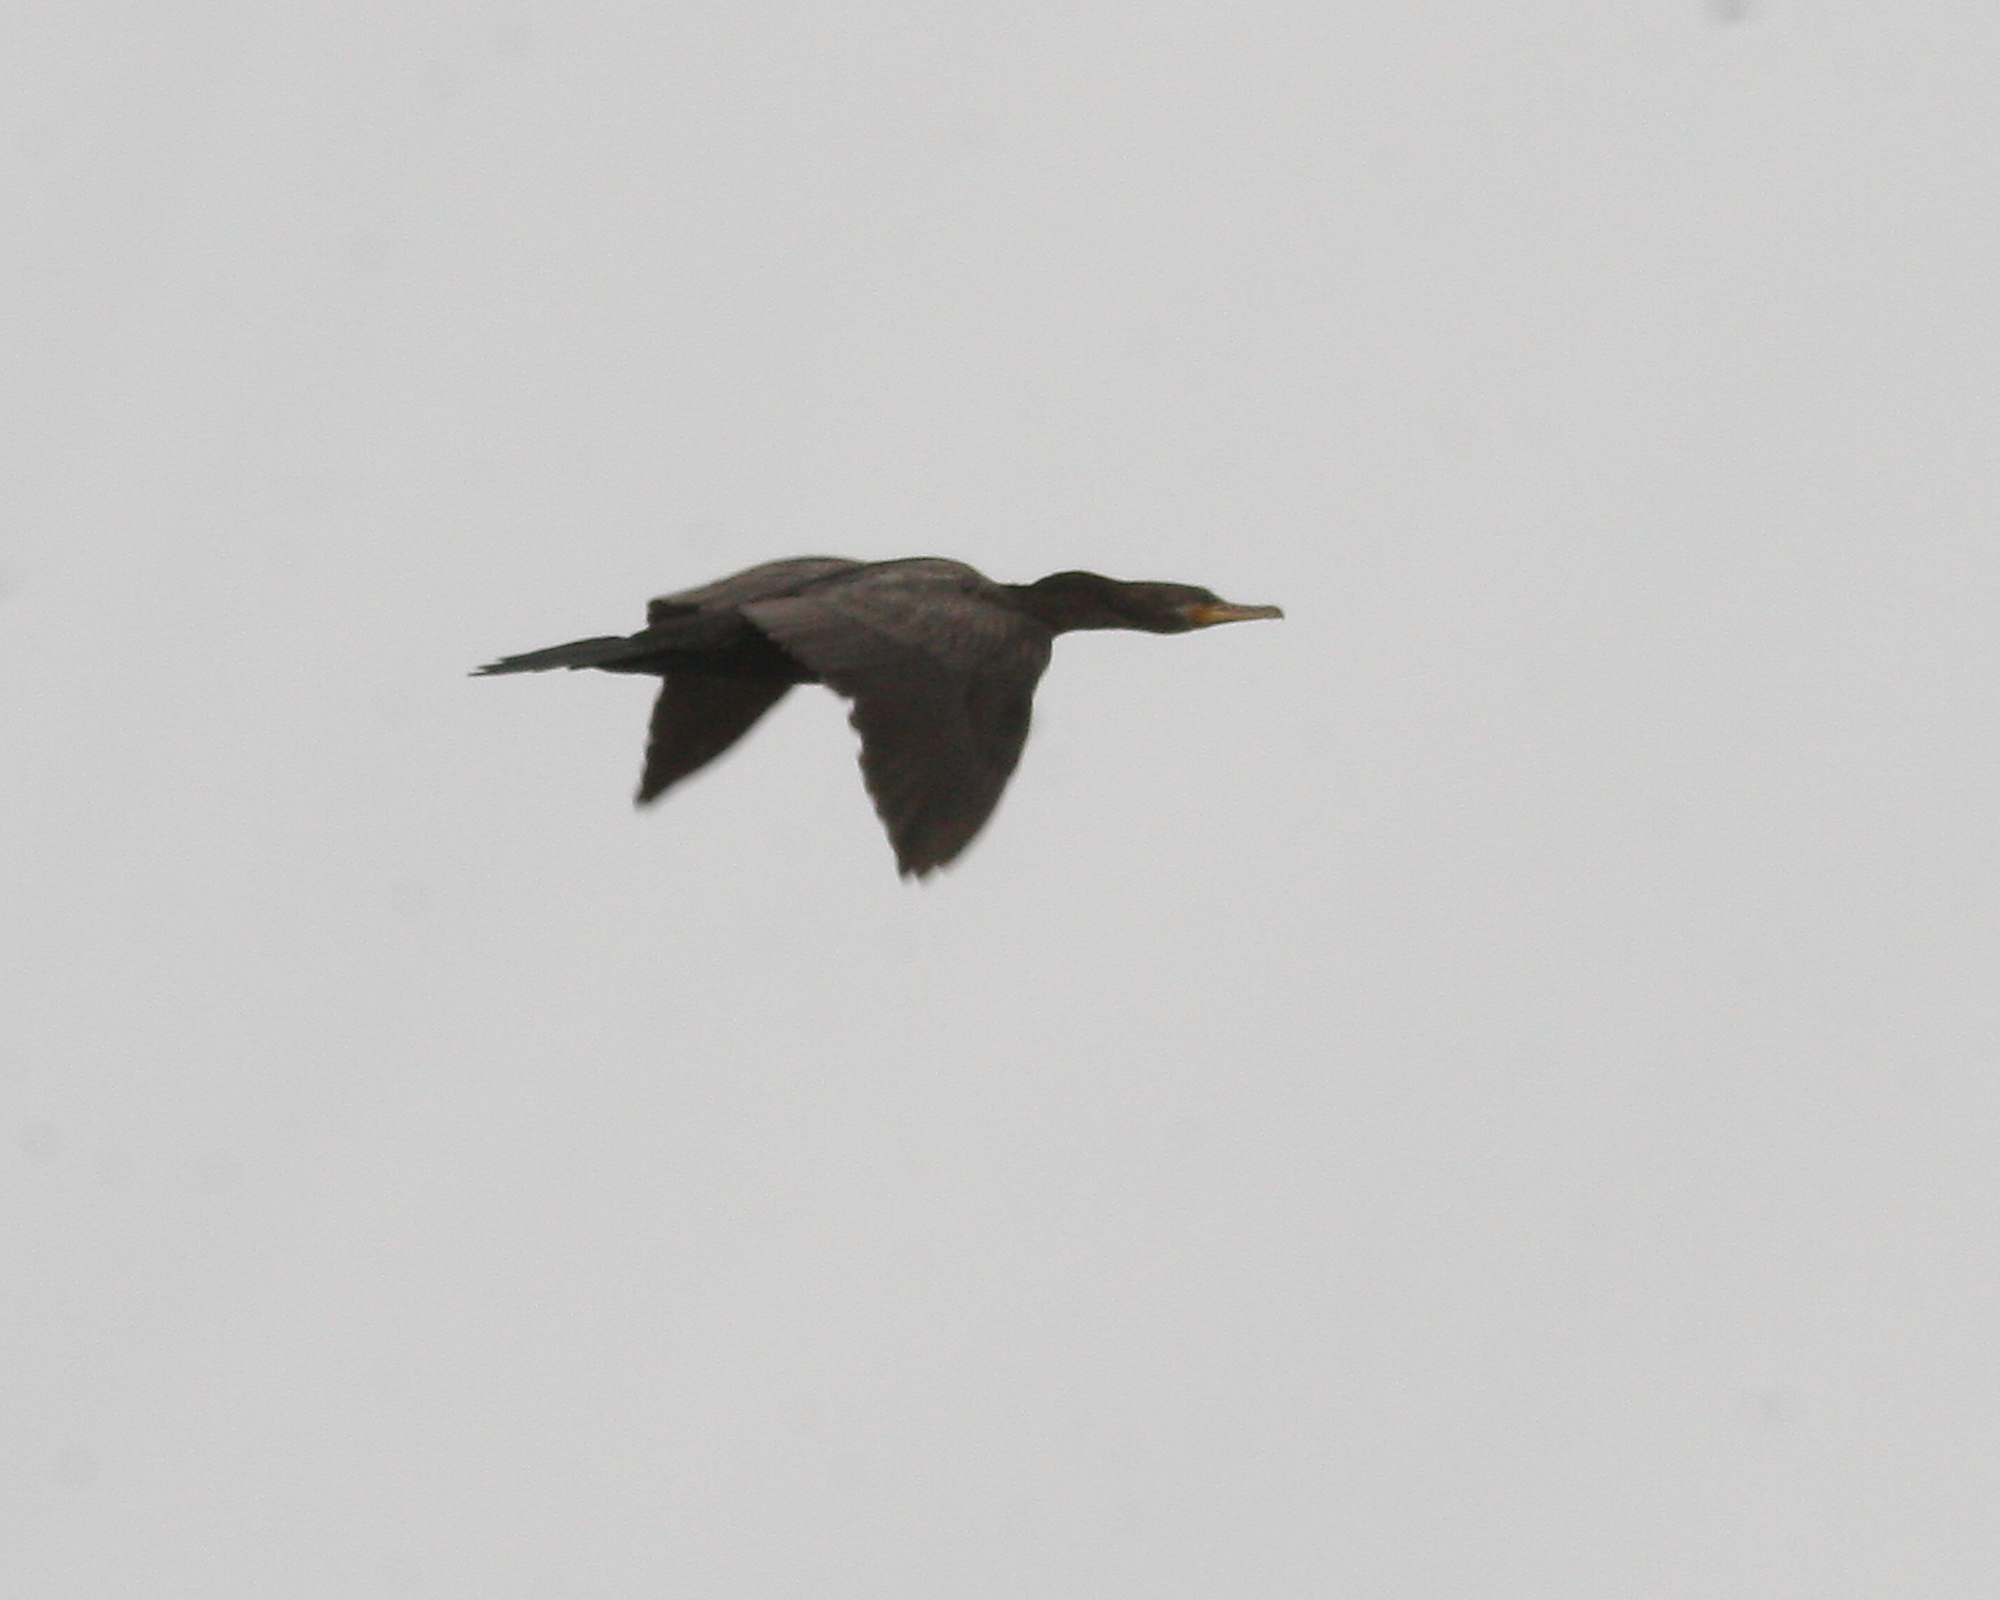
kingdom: Animalia
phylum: Chordata
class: Aves
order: Suliformes
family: Phalacrocoracidae
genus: Phalacrocorax
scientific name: Phalacrocorax brasilianus
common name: Neotropic cormorant
